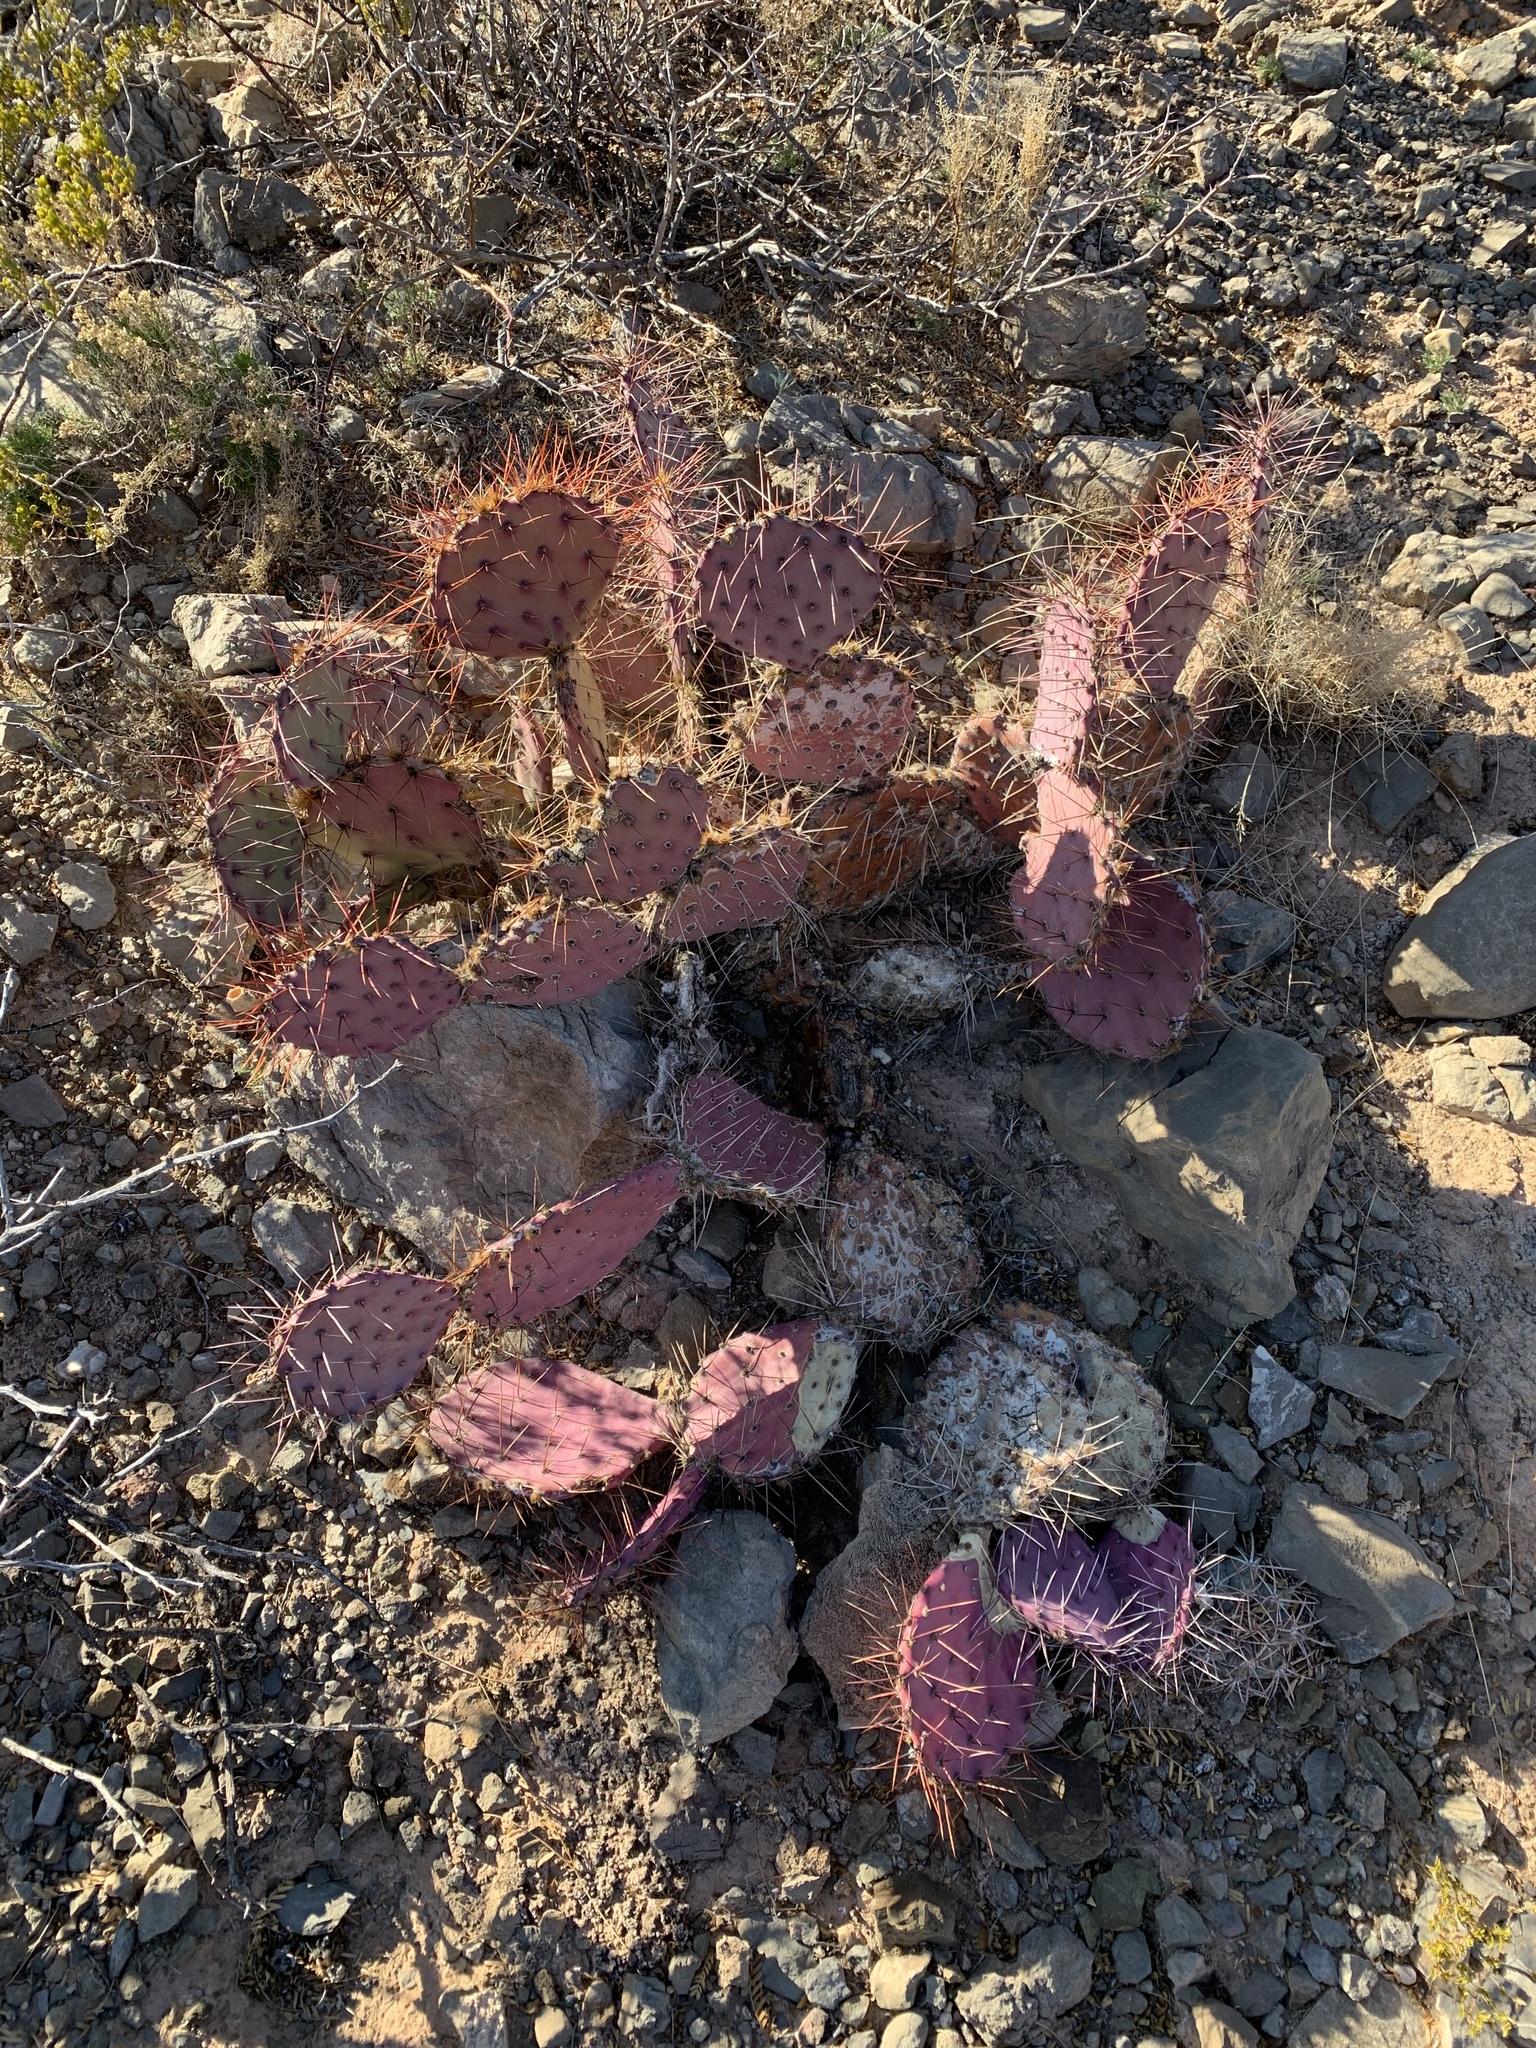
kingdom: Plantae
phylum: Tracheophyta
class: Magnoliopsida
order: Caryophyllales
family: Cactaceae
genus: Opuntia
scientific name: Opuntia macrocentra
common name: Purple prickly-pear
